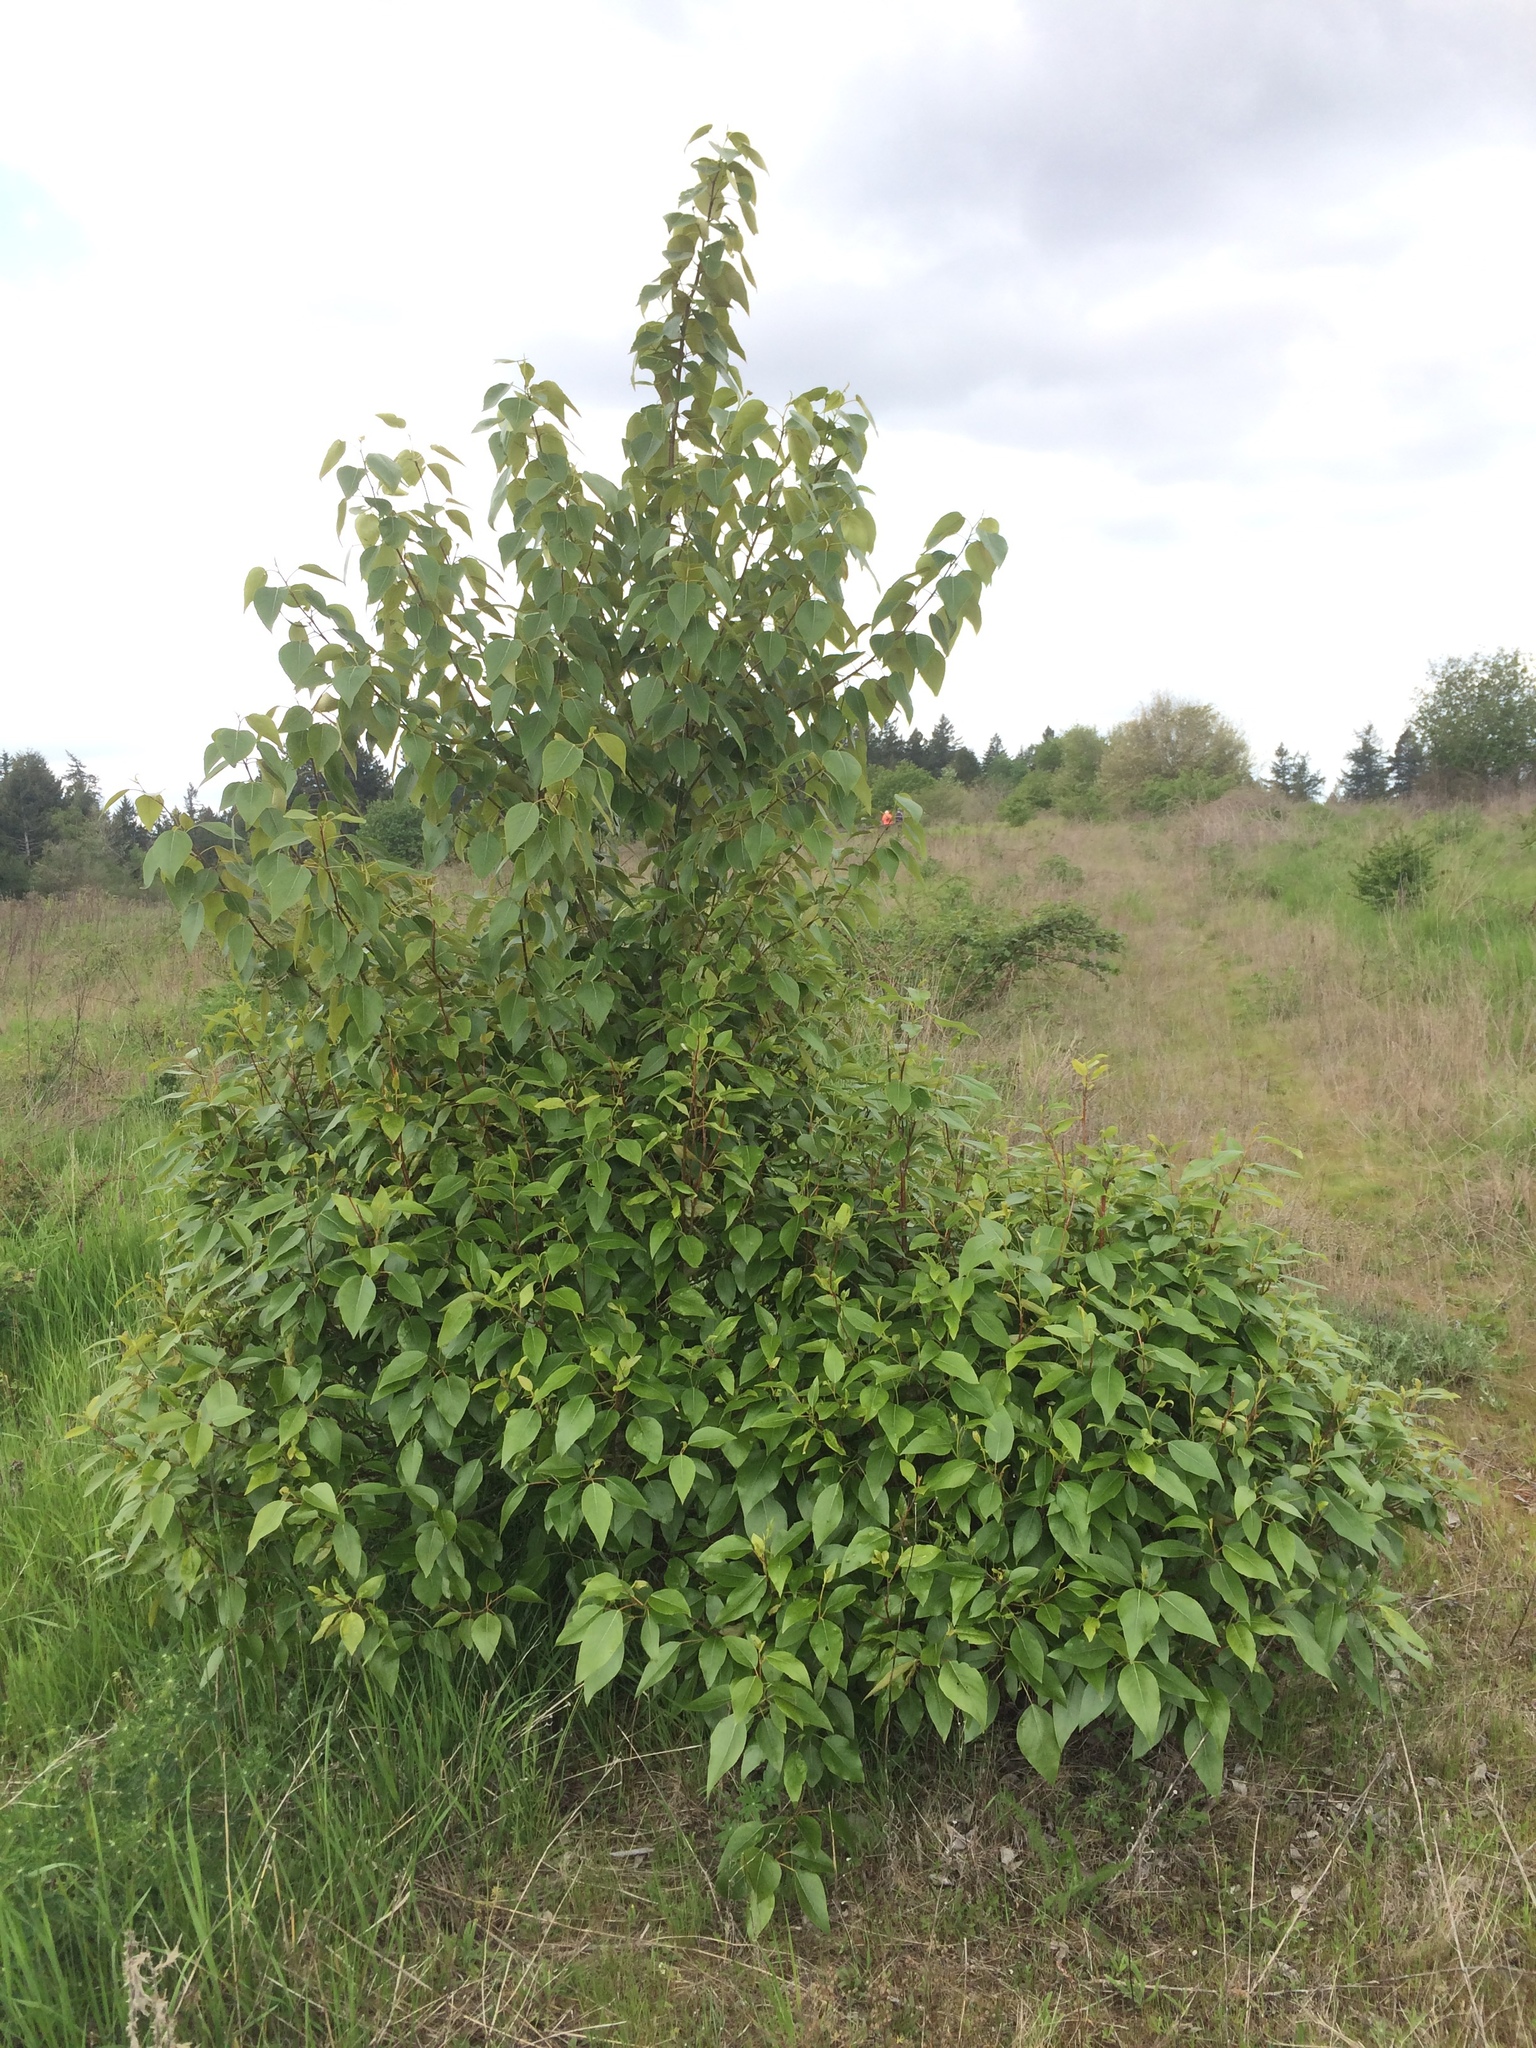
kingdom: Plantae
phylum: Tracheophyta
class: Magnoliopsida
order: Malpighiales
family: Salicaceae
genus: Populus
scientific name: Populus trichocarpa
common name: Black cottonwood
